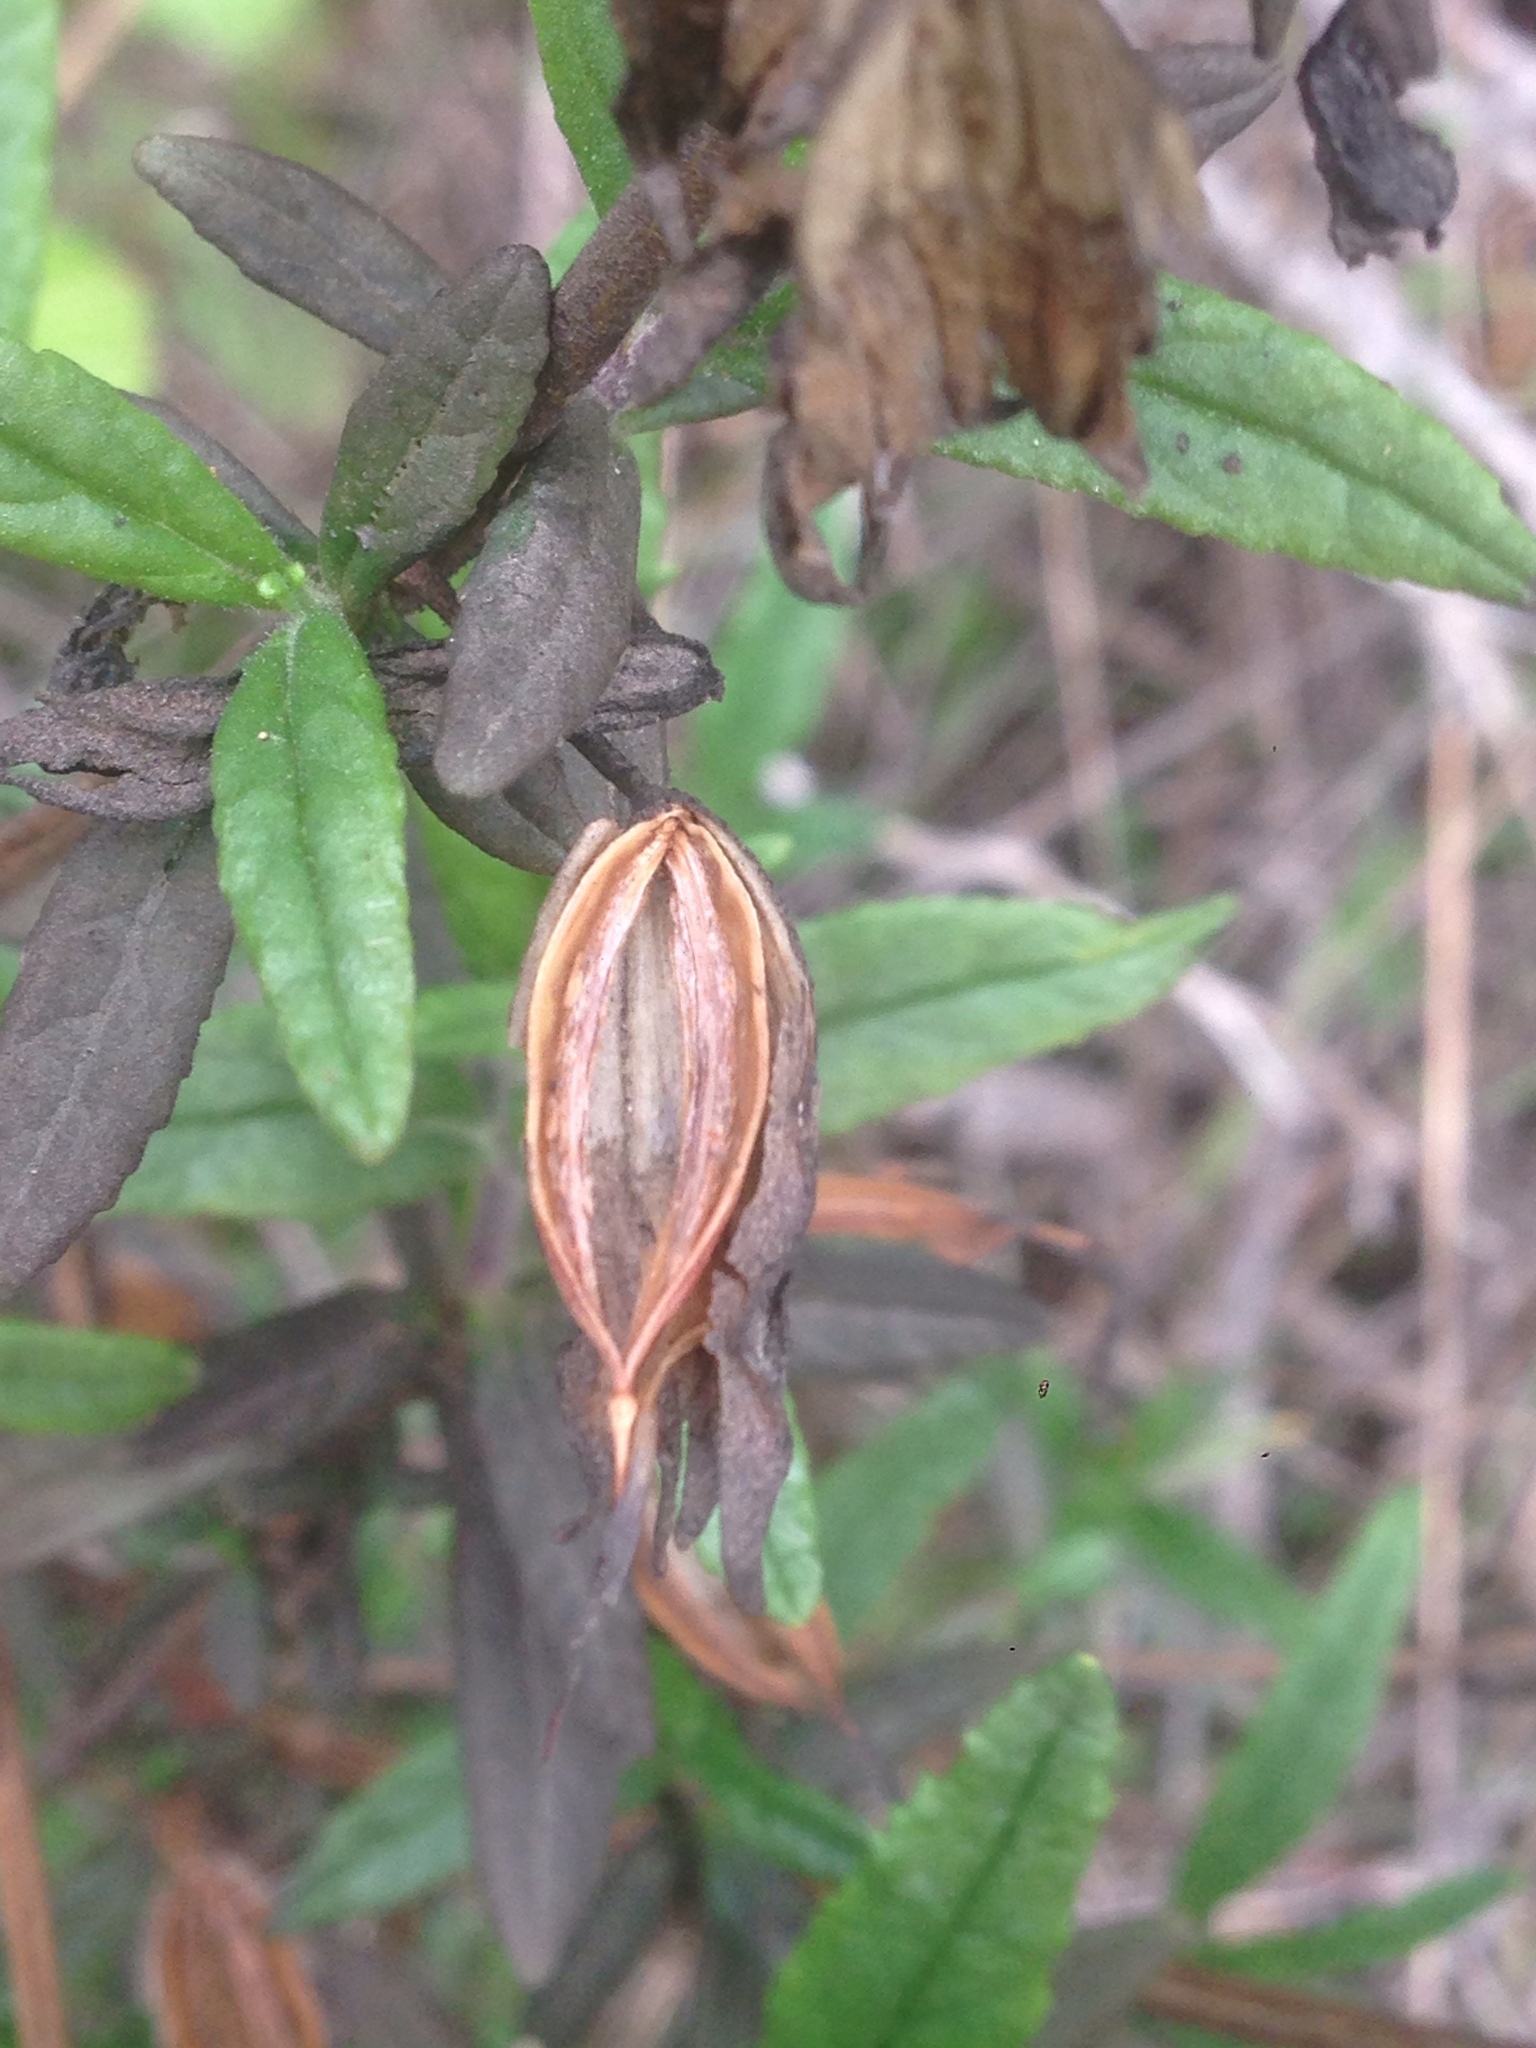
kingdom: Plantae
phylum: Tracheophyta
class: Magnoliopsida
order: Lamiales
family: Phrymaceae
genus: Diplacus
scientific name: Diplacus aurantiacus
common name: Bush monkey-flower
